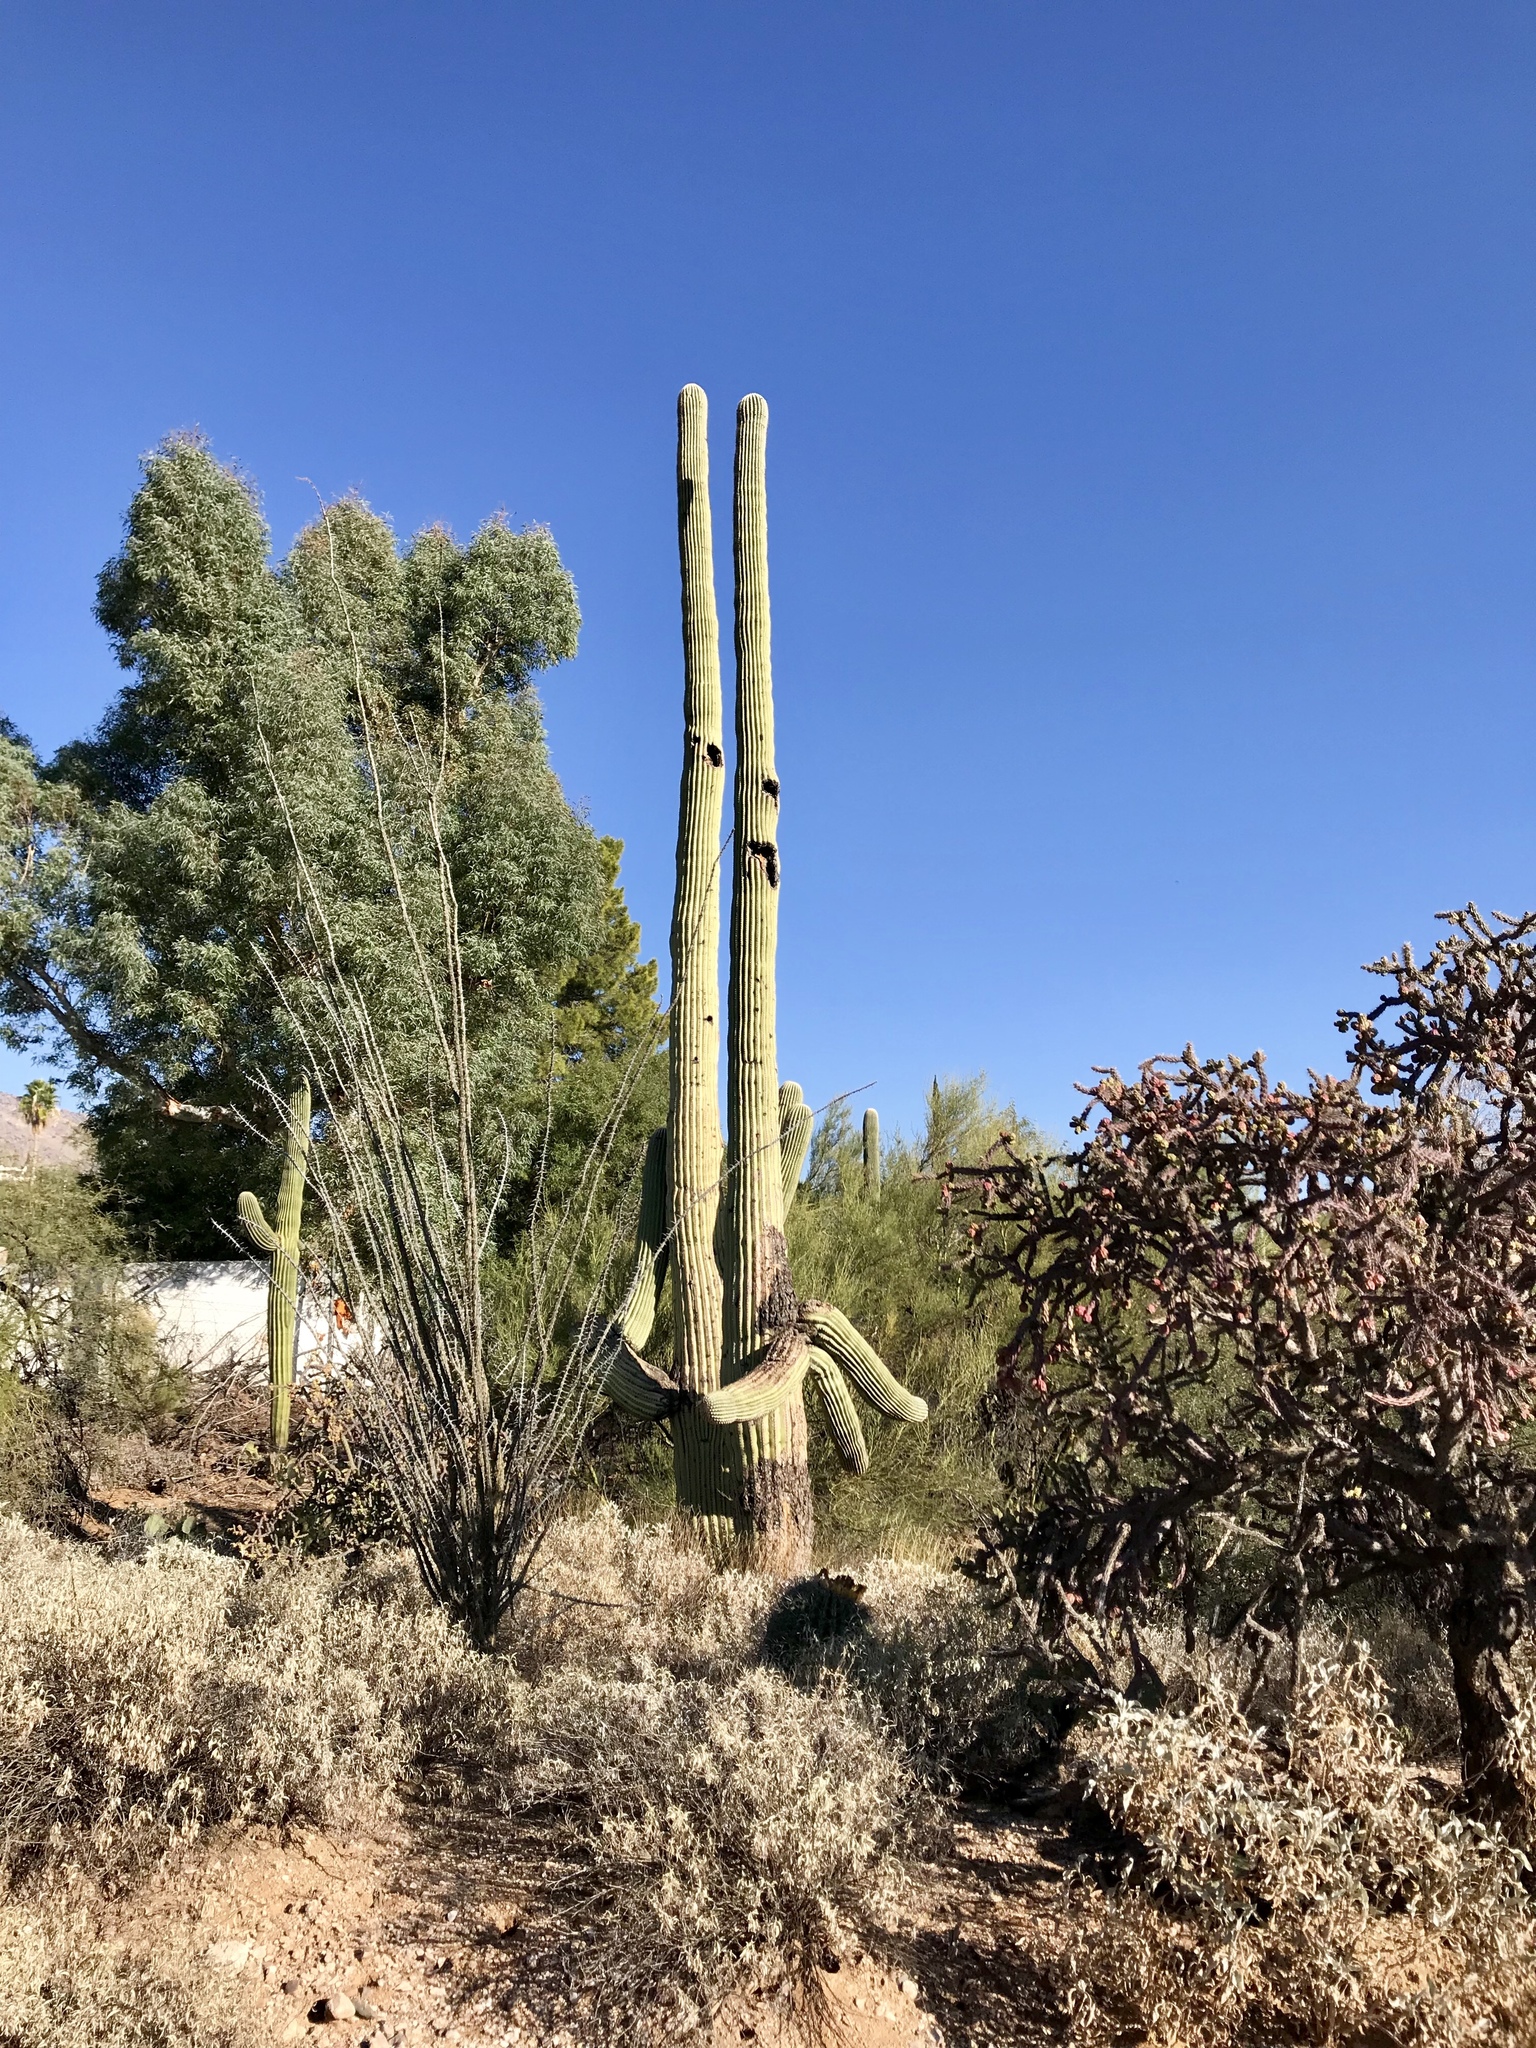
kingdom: Plantae
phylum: Tracheophyta
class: Magnoliopsida
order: Ericales
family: Fouquieriaceae
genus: Fouquieria
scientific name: Fouquieria splendens
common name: Vine-cactus
